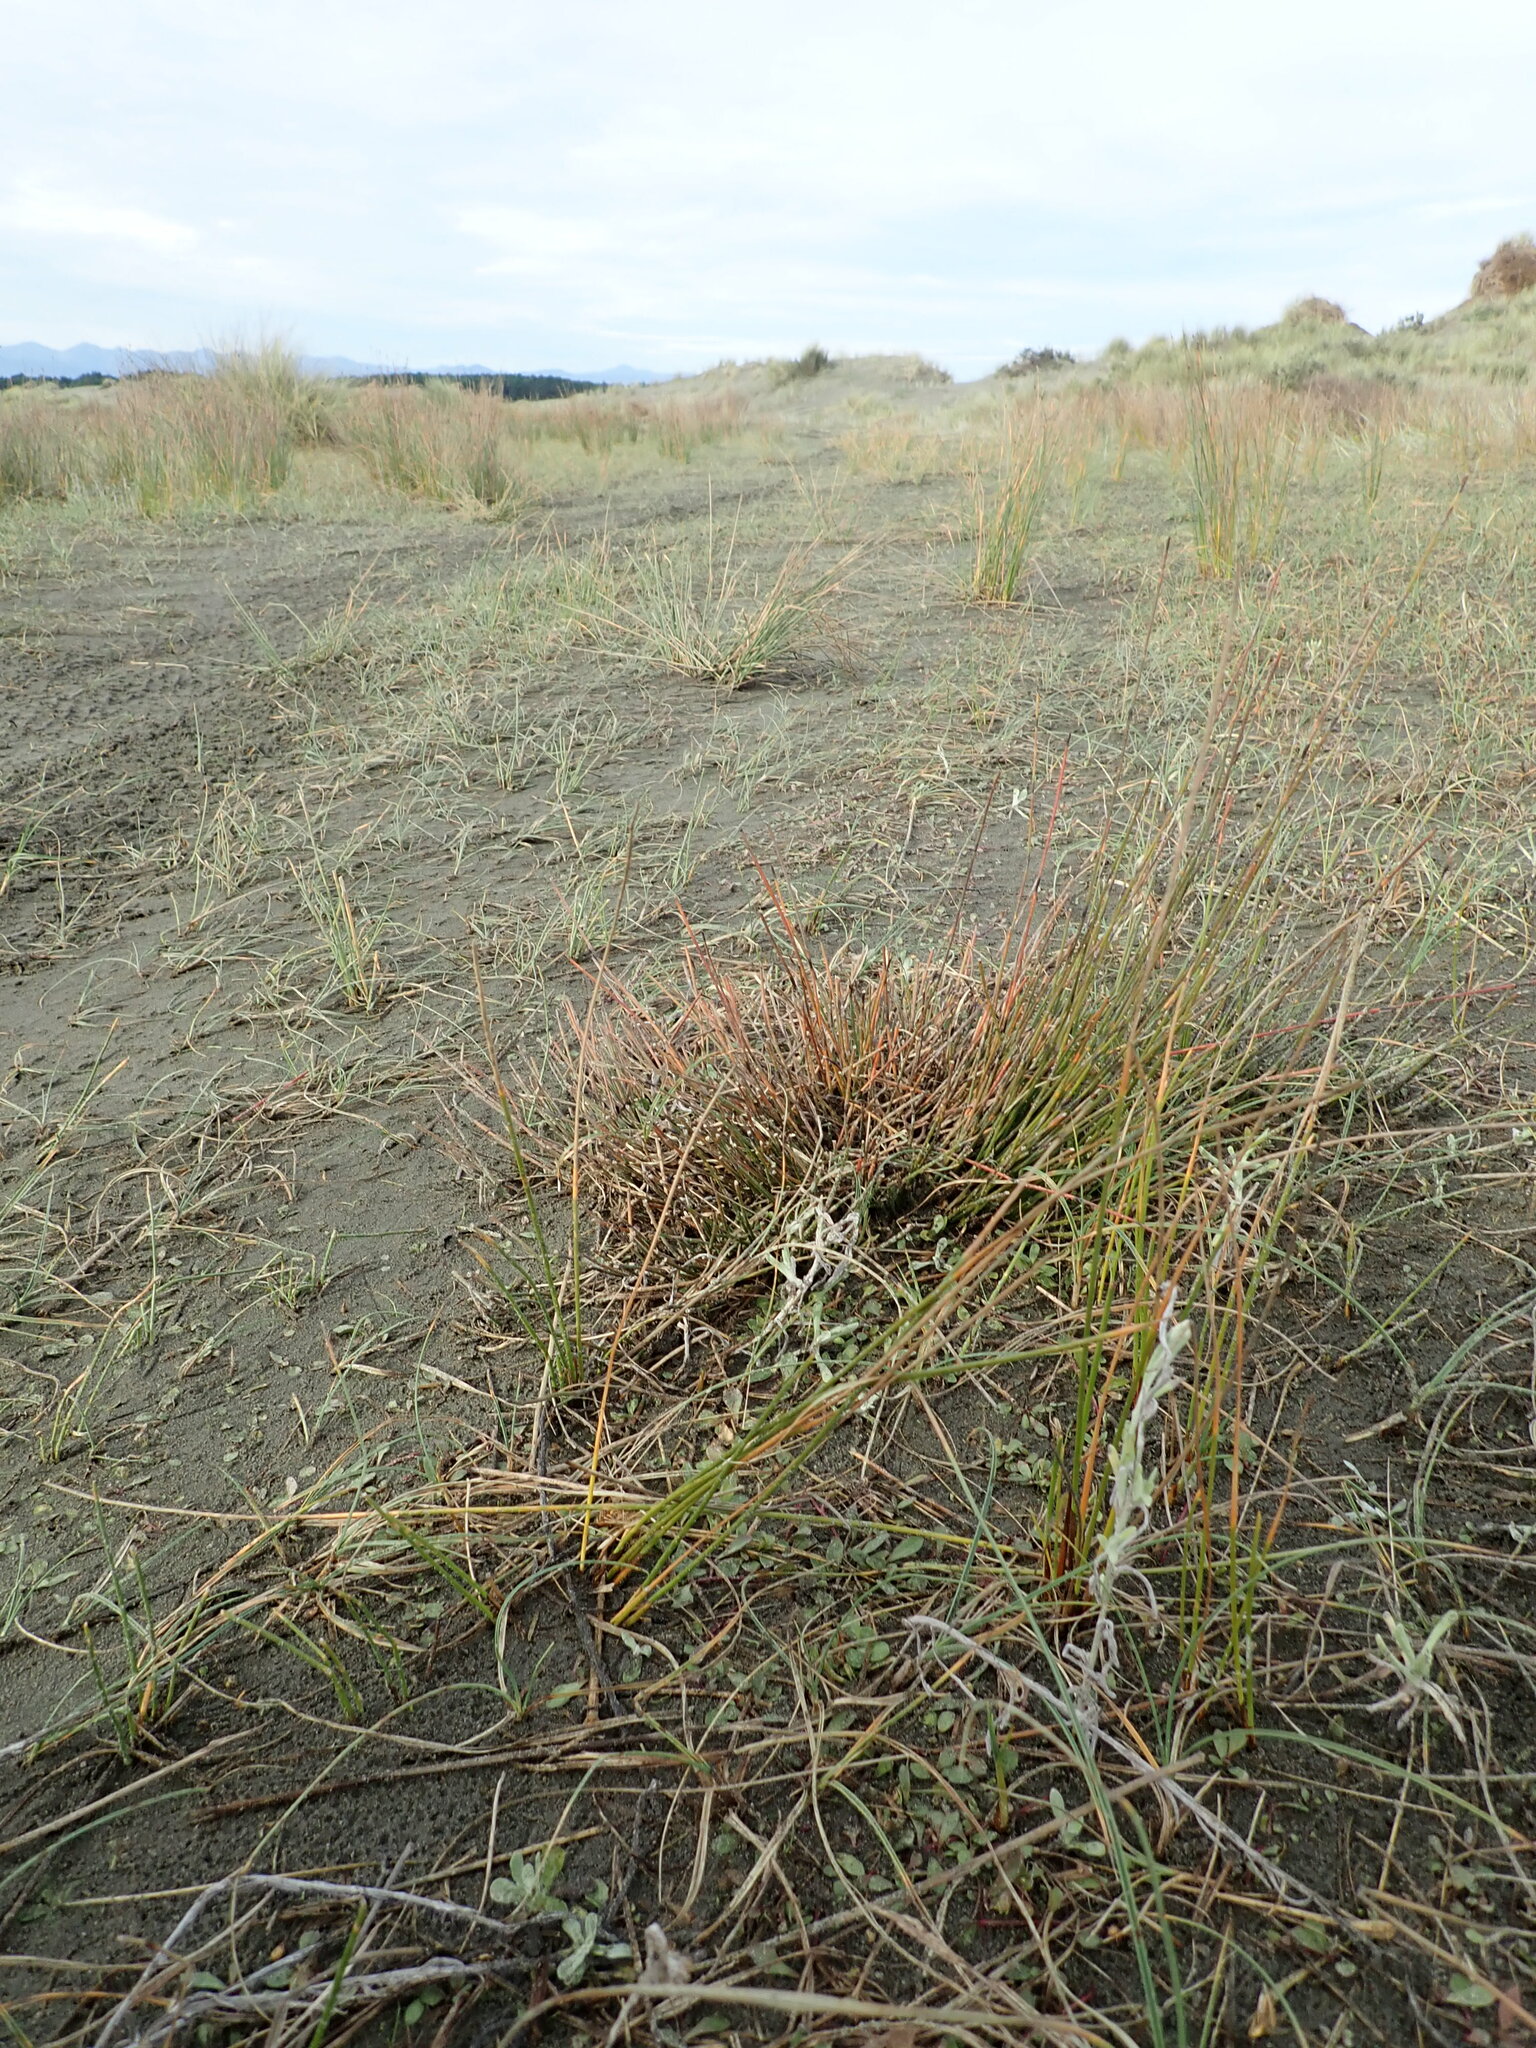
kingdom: Plantae
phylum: Tracheophyta
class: Liliopsida
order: Poales
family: Restionaceae
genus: Apodasmia
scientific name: Apodasmia similis
